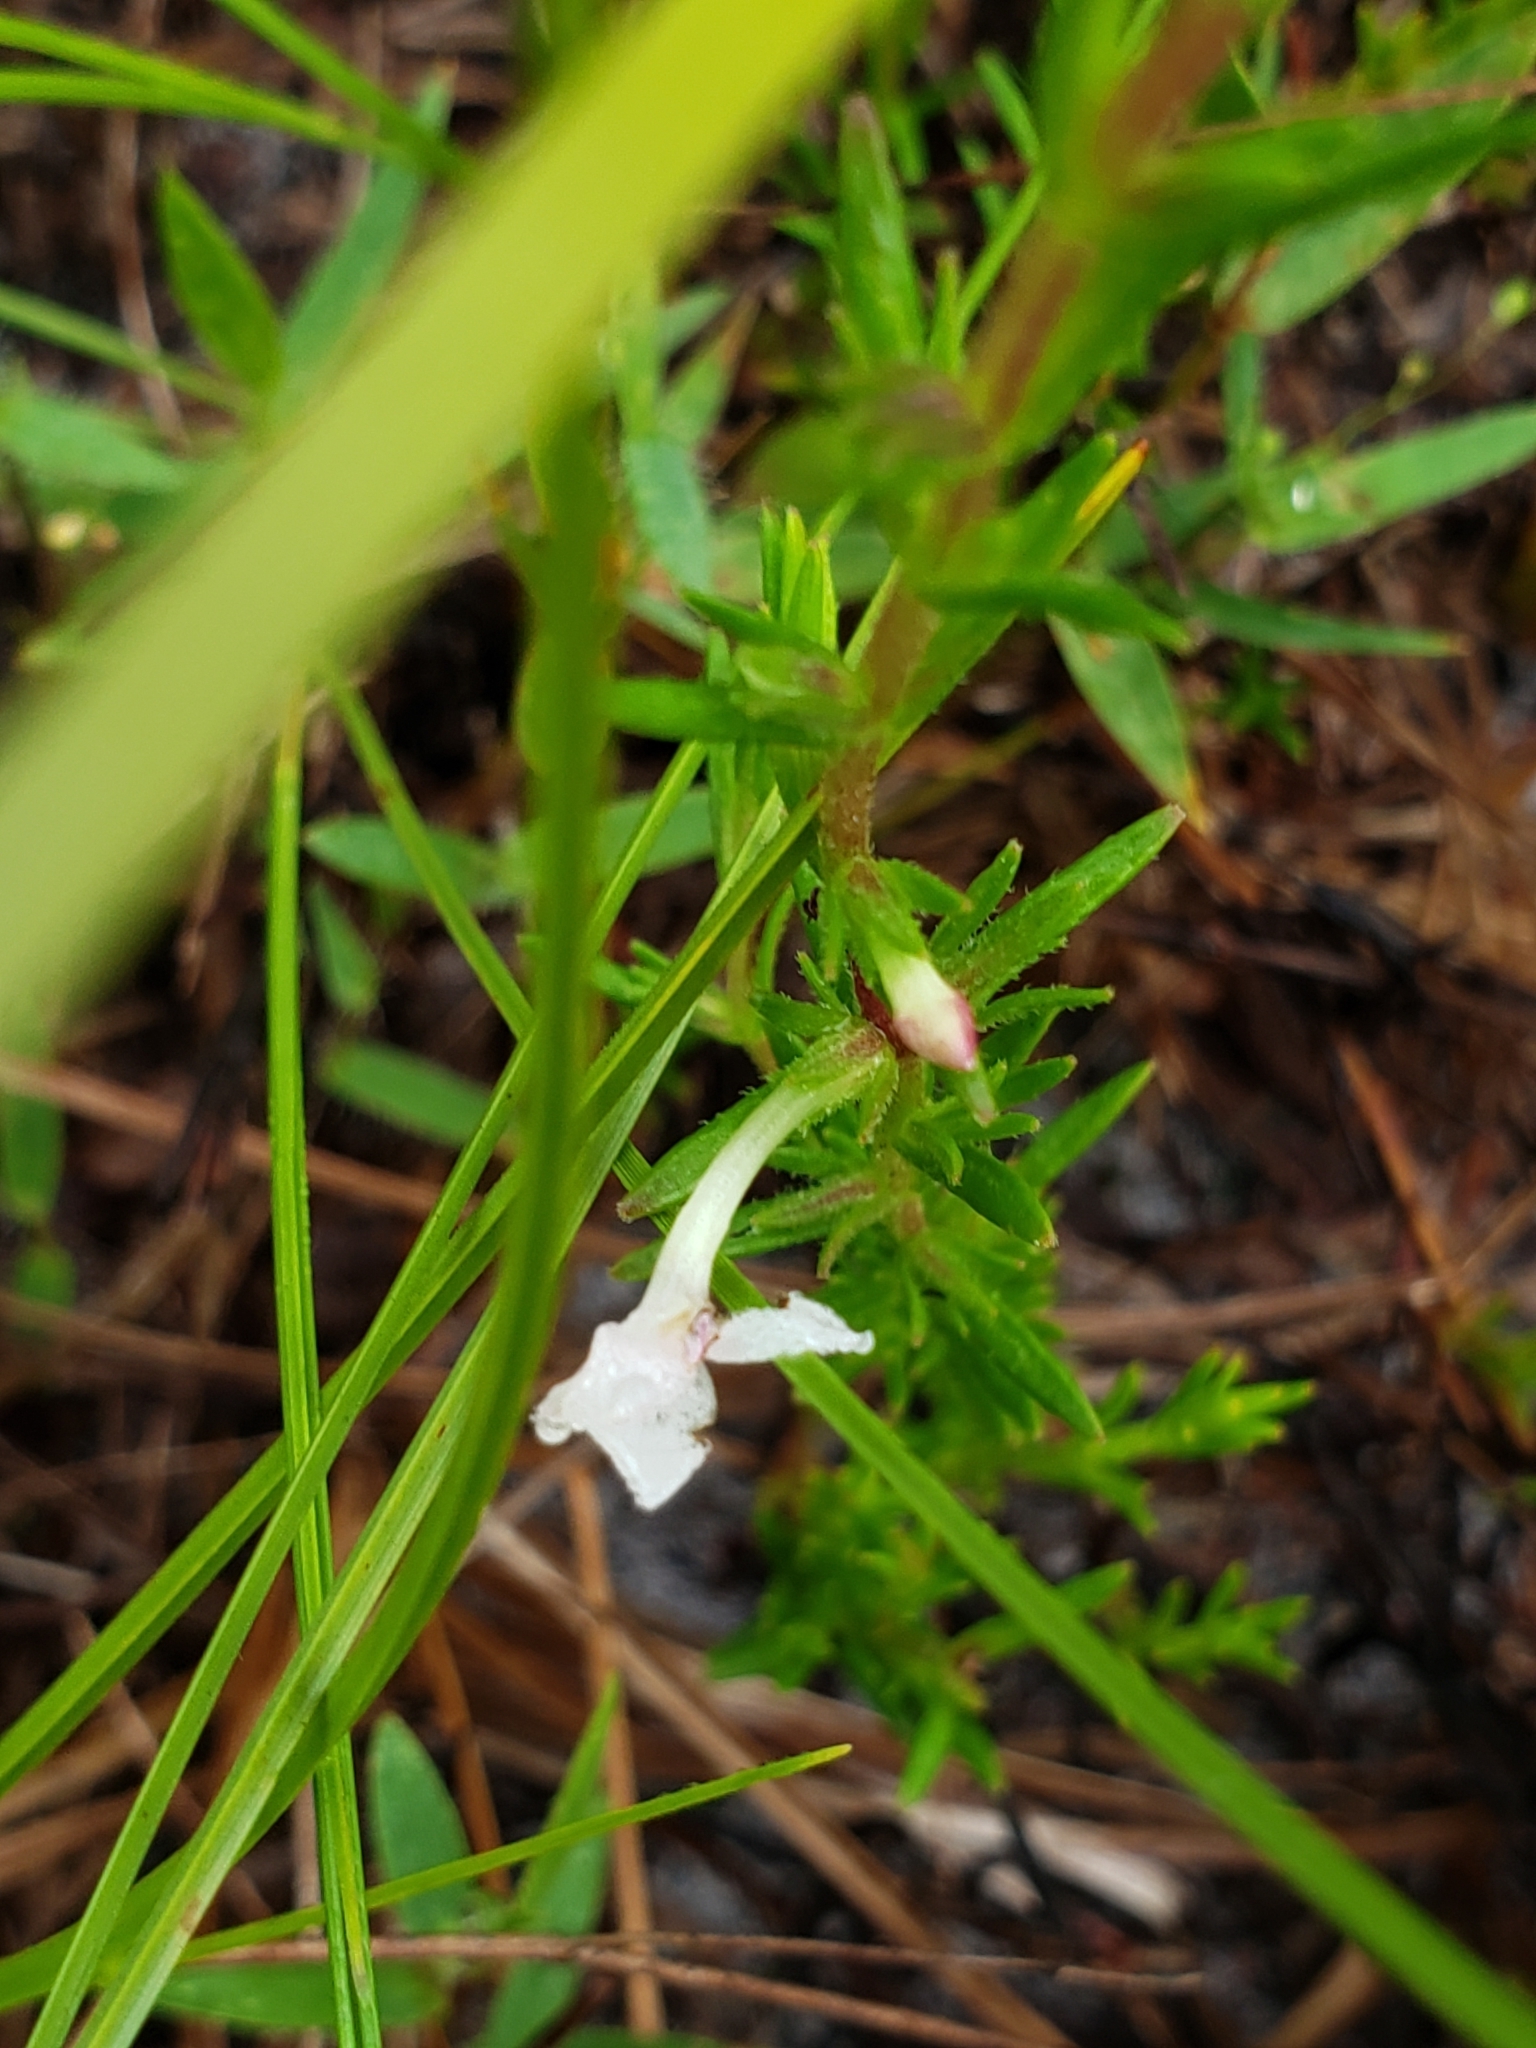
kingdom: Plantae
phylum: Tracheophyta
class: Magnoliopsida
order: Lamiales
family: Plantaginaceae
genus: Gratiola
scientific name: Gratiola hispida
